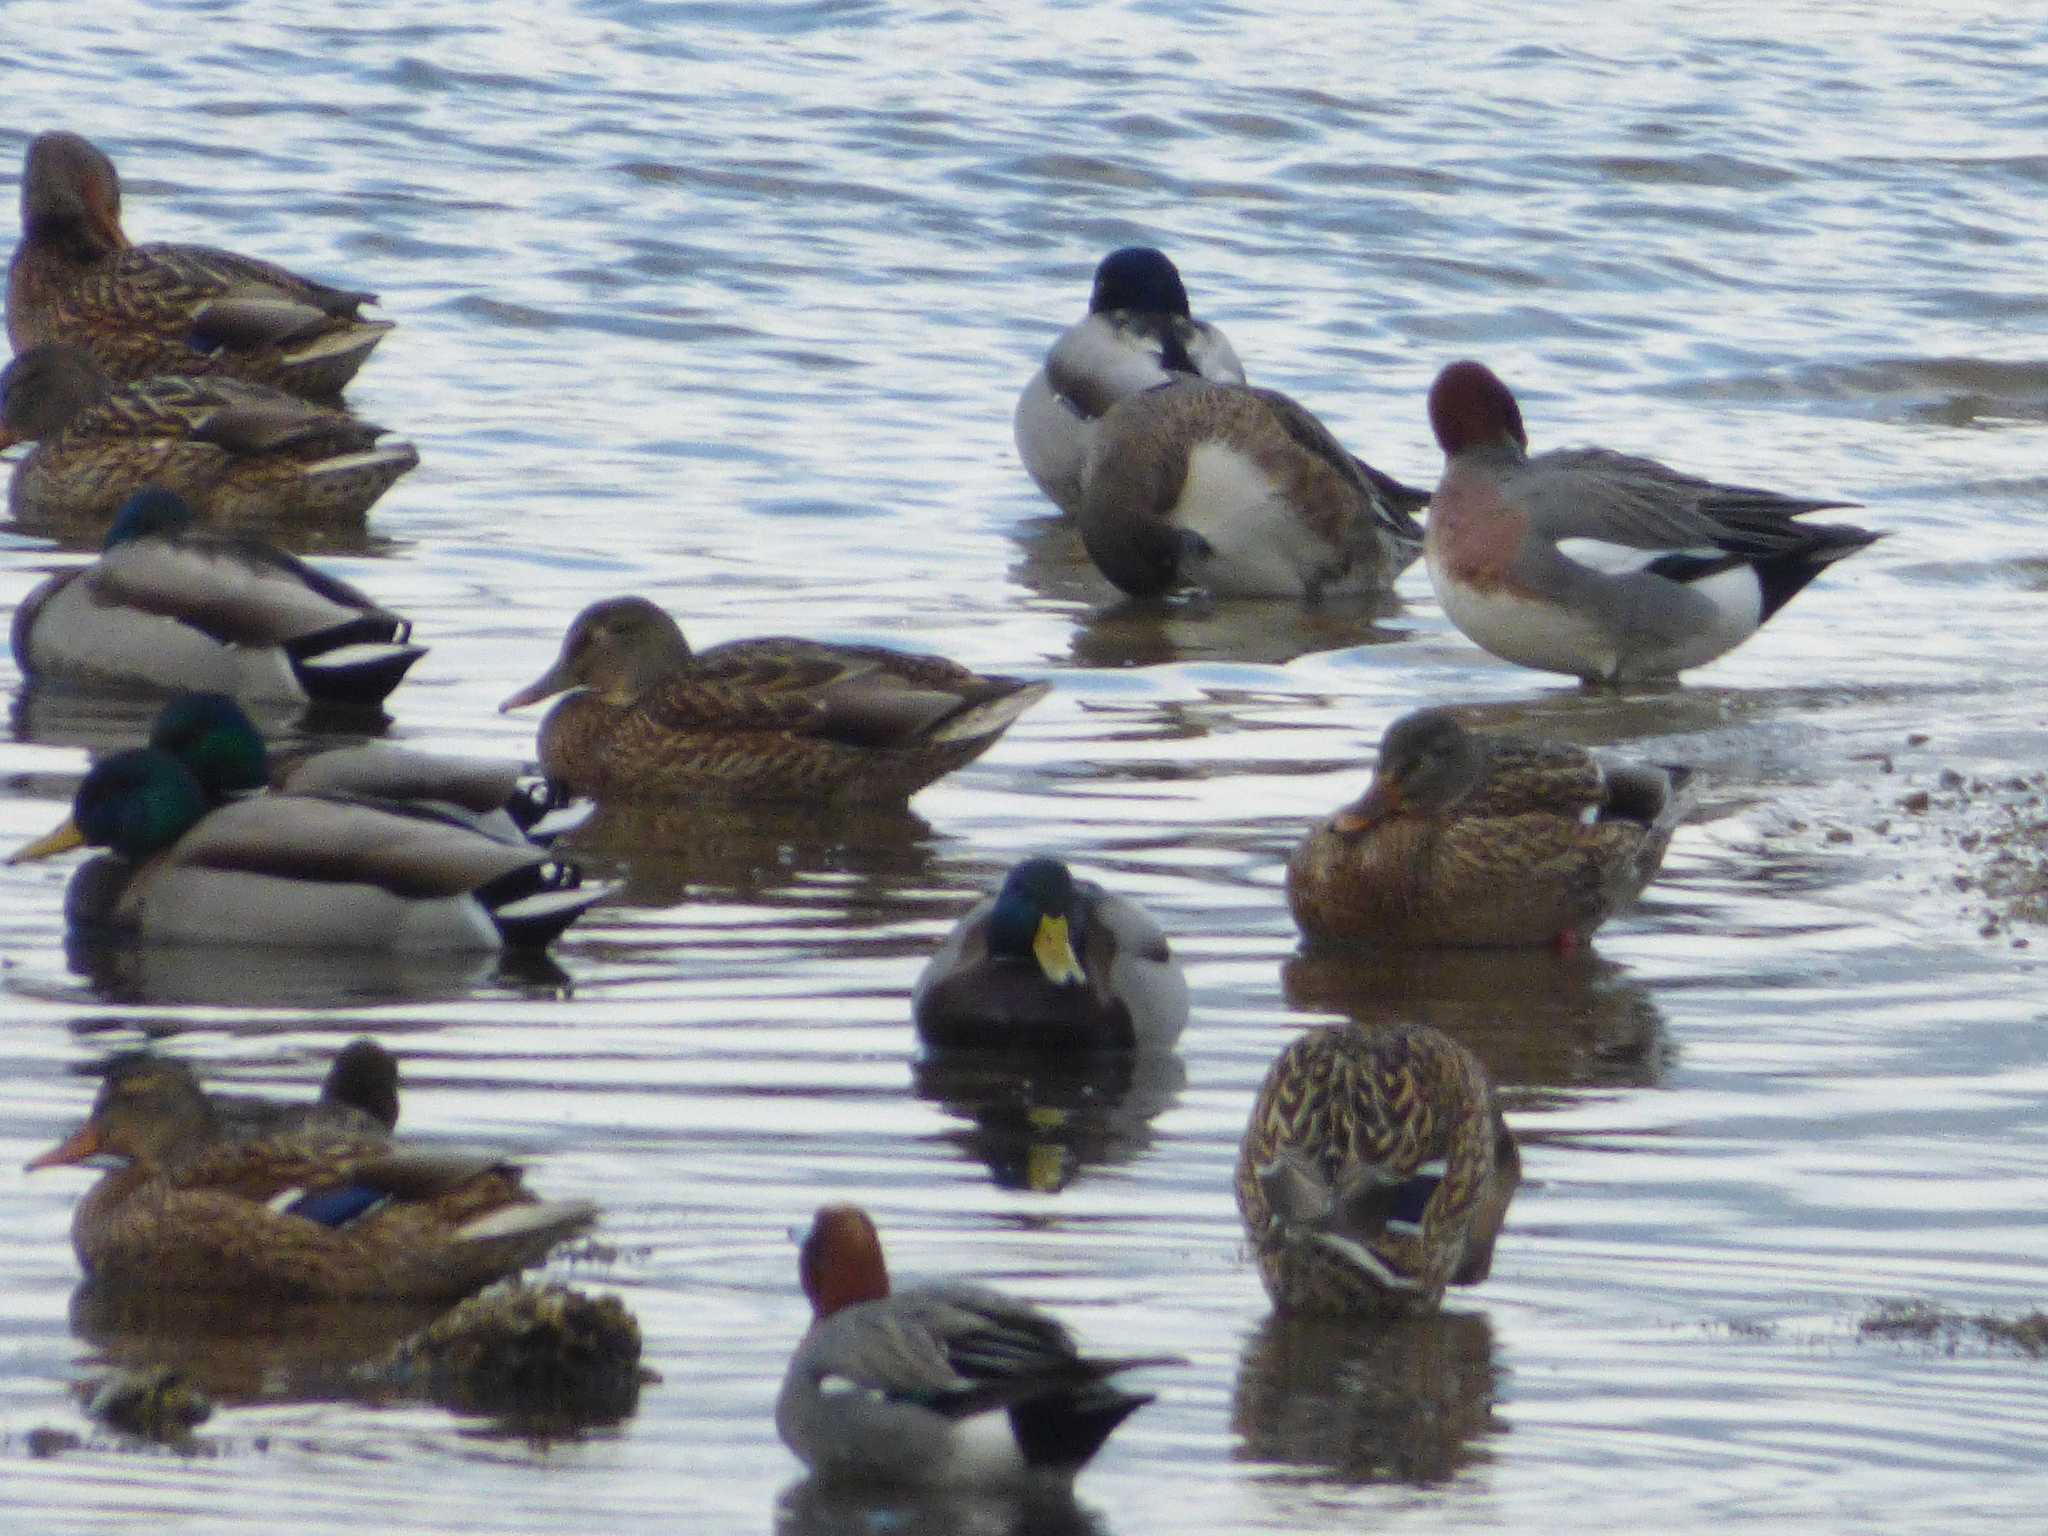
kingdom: Animalia
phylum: Chordata
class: Aves
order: Anseriformes
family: Anatidae
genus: Mareca
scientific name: Mareca penelope
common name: Eurasian wigeon
